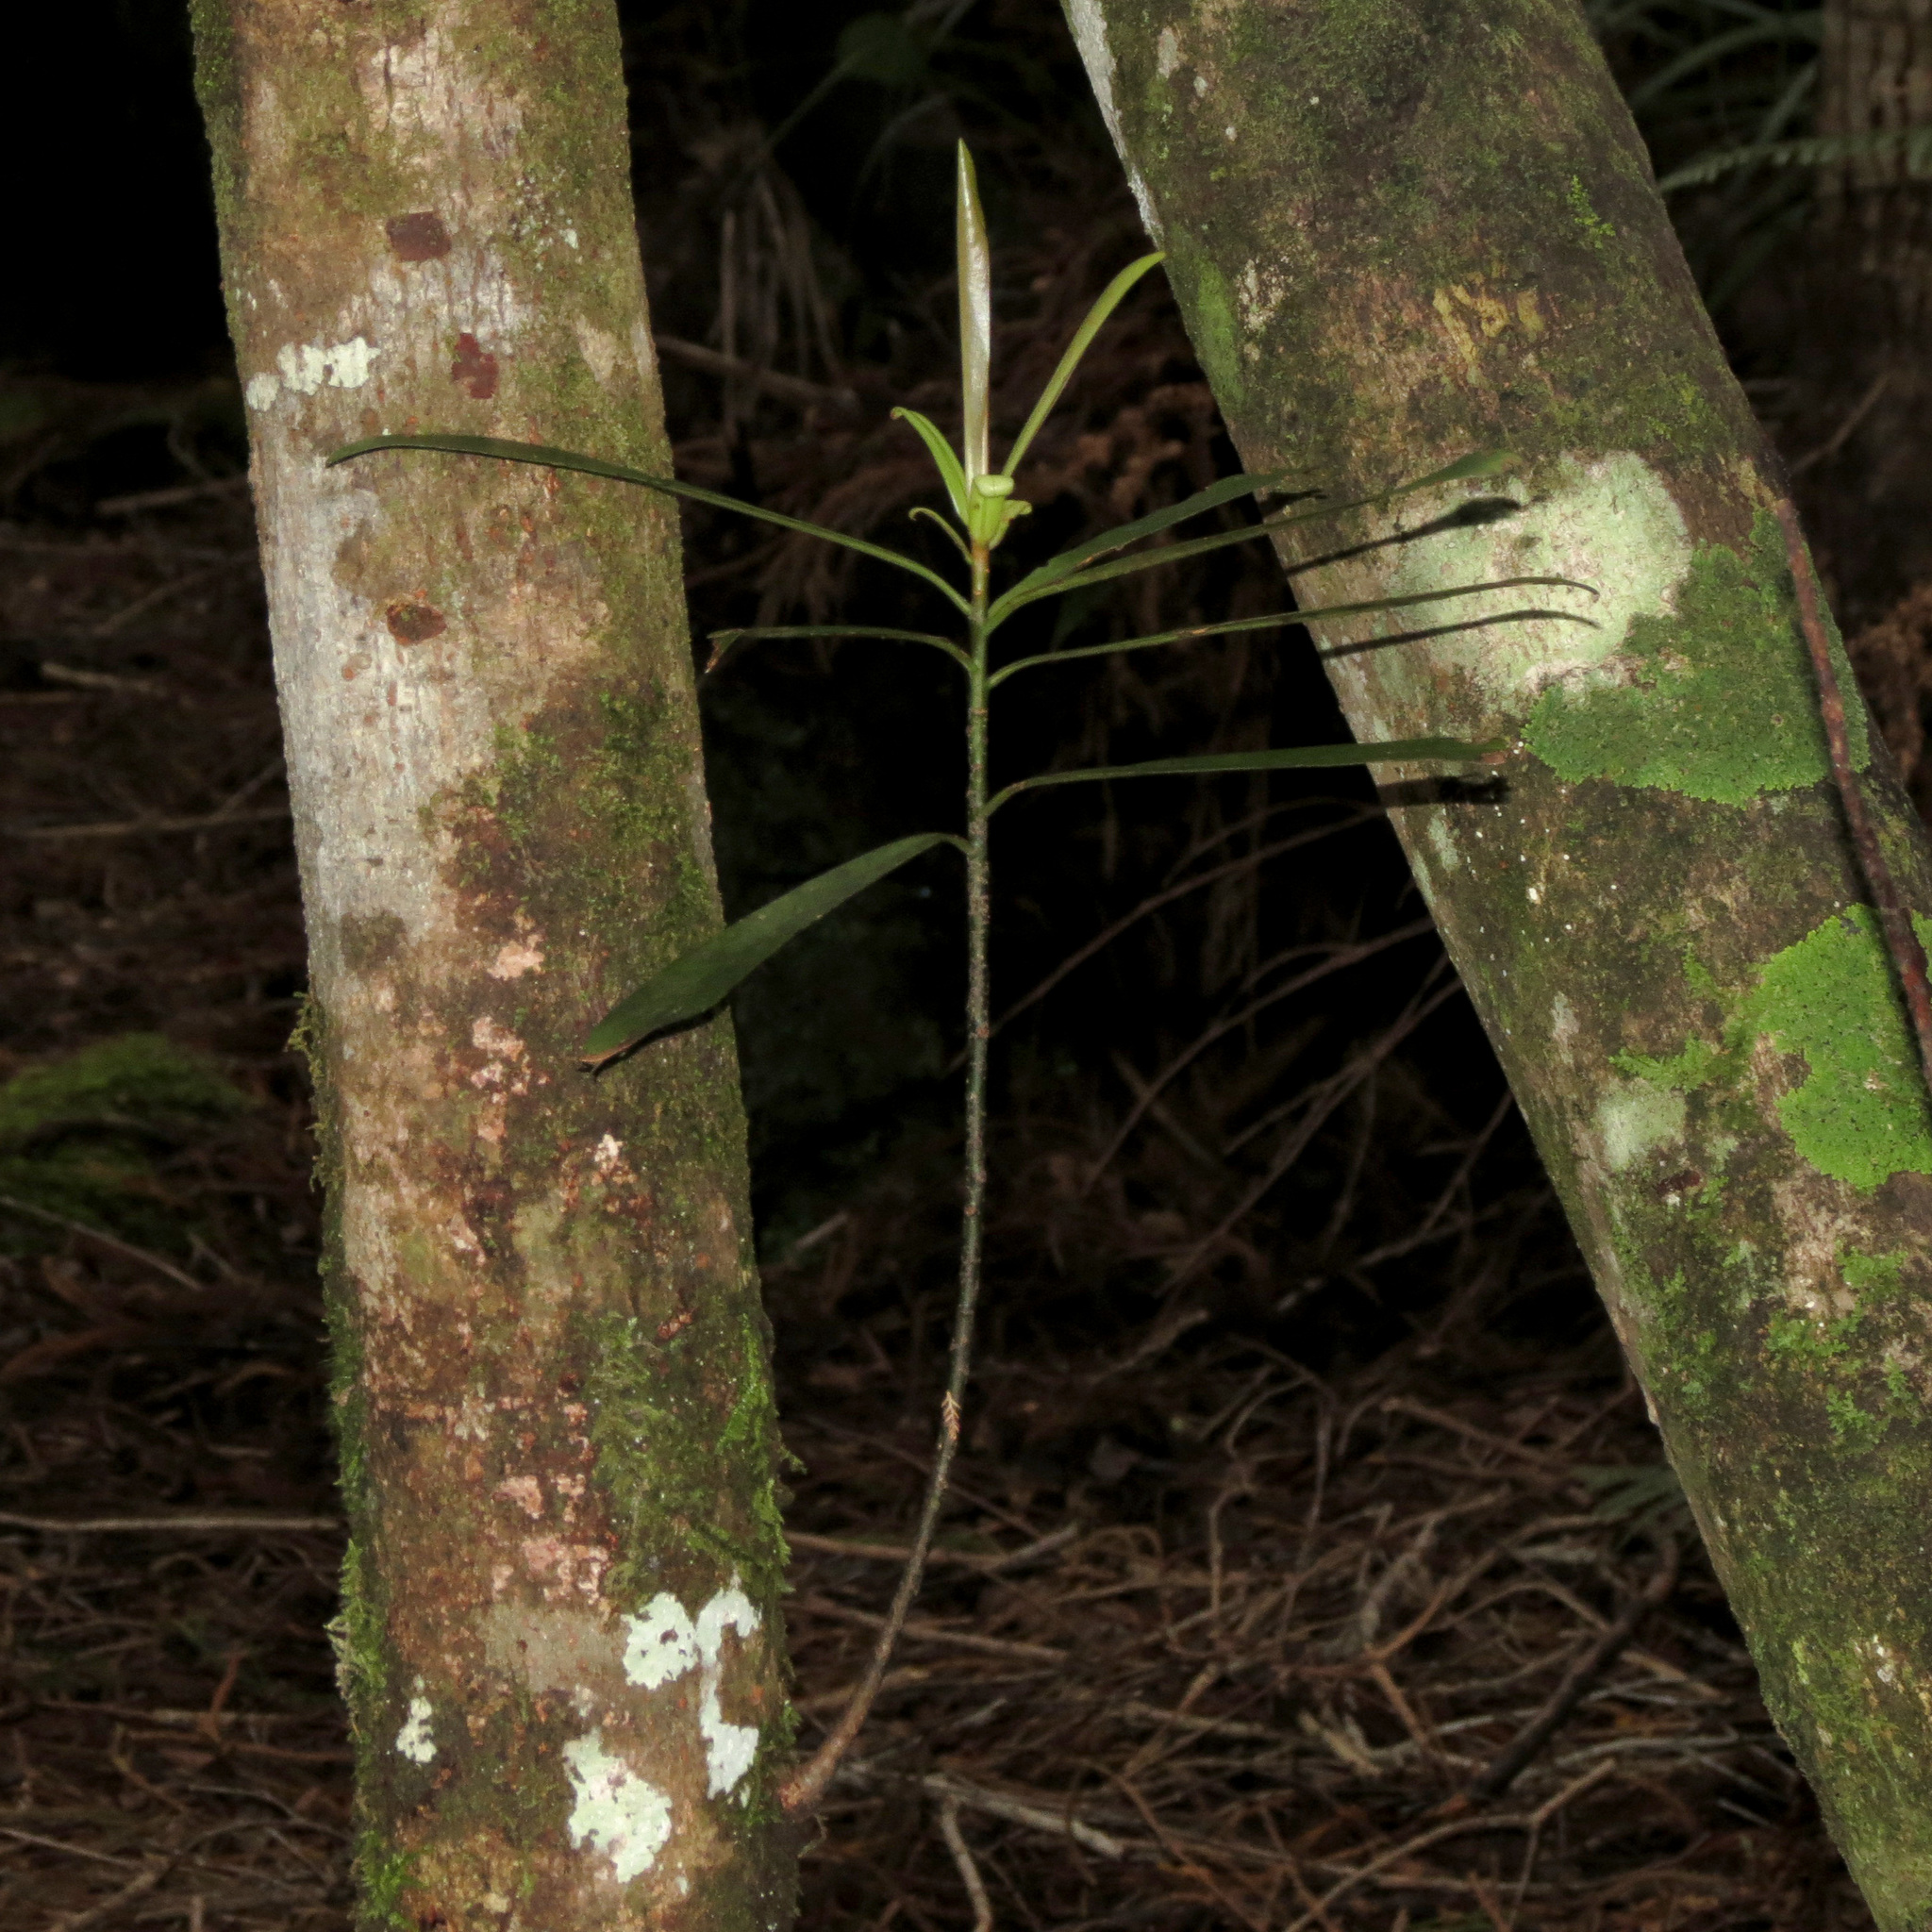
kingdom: Plantae
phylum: Tracheophyta
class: Magnoliopsida
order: Ericales
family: Primulaceae
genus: Myrsine
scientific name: Myrsine salicina
